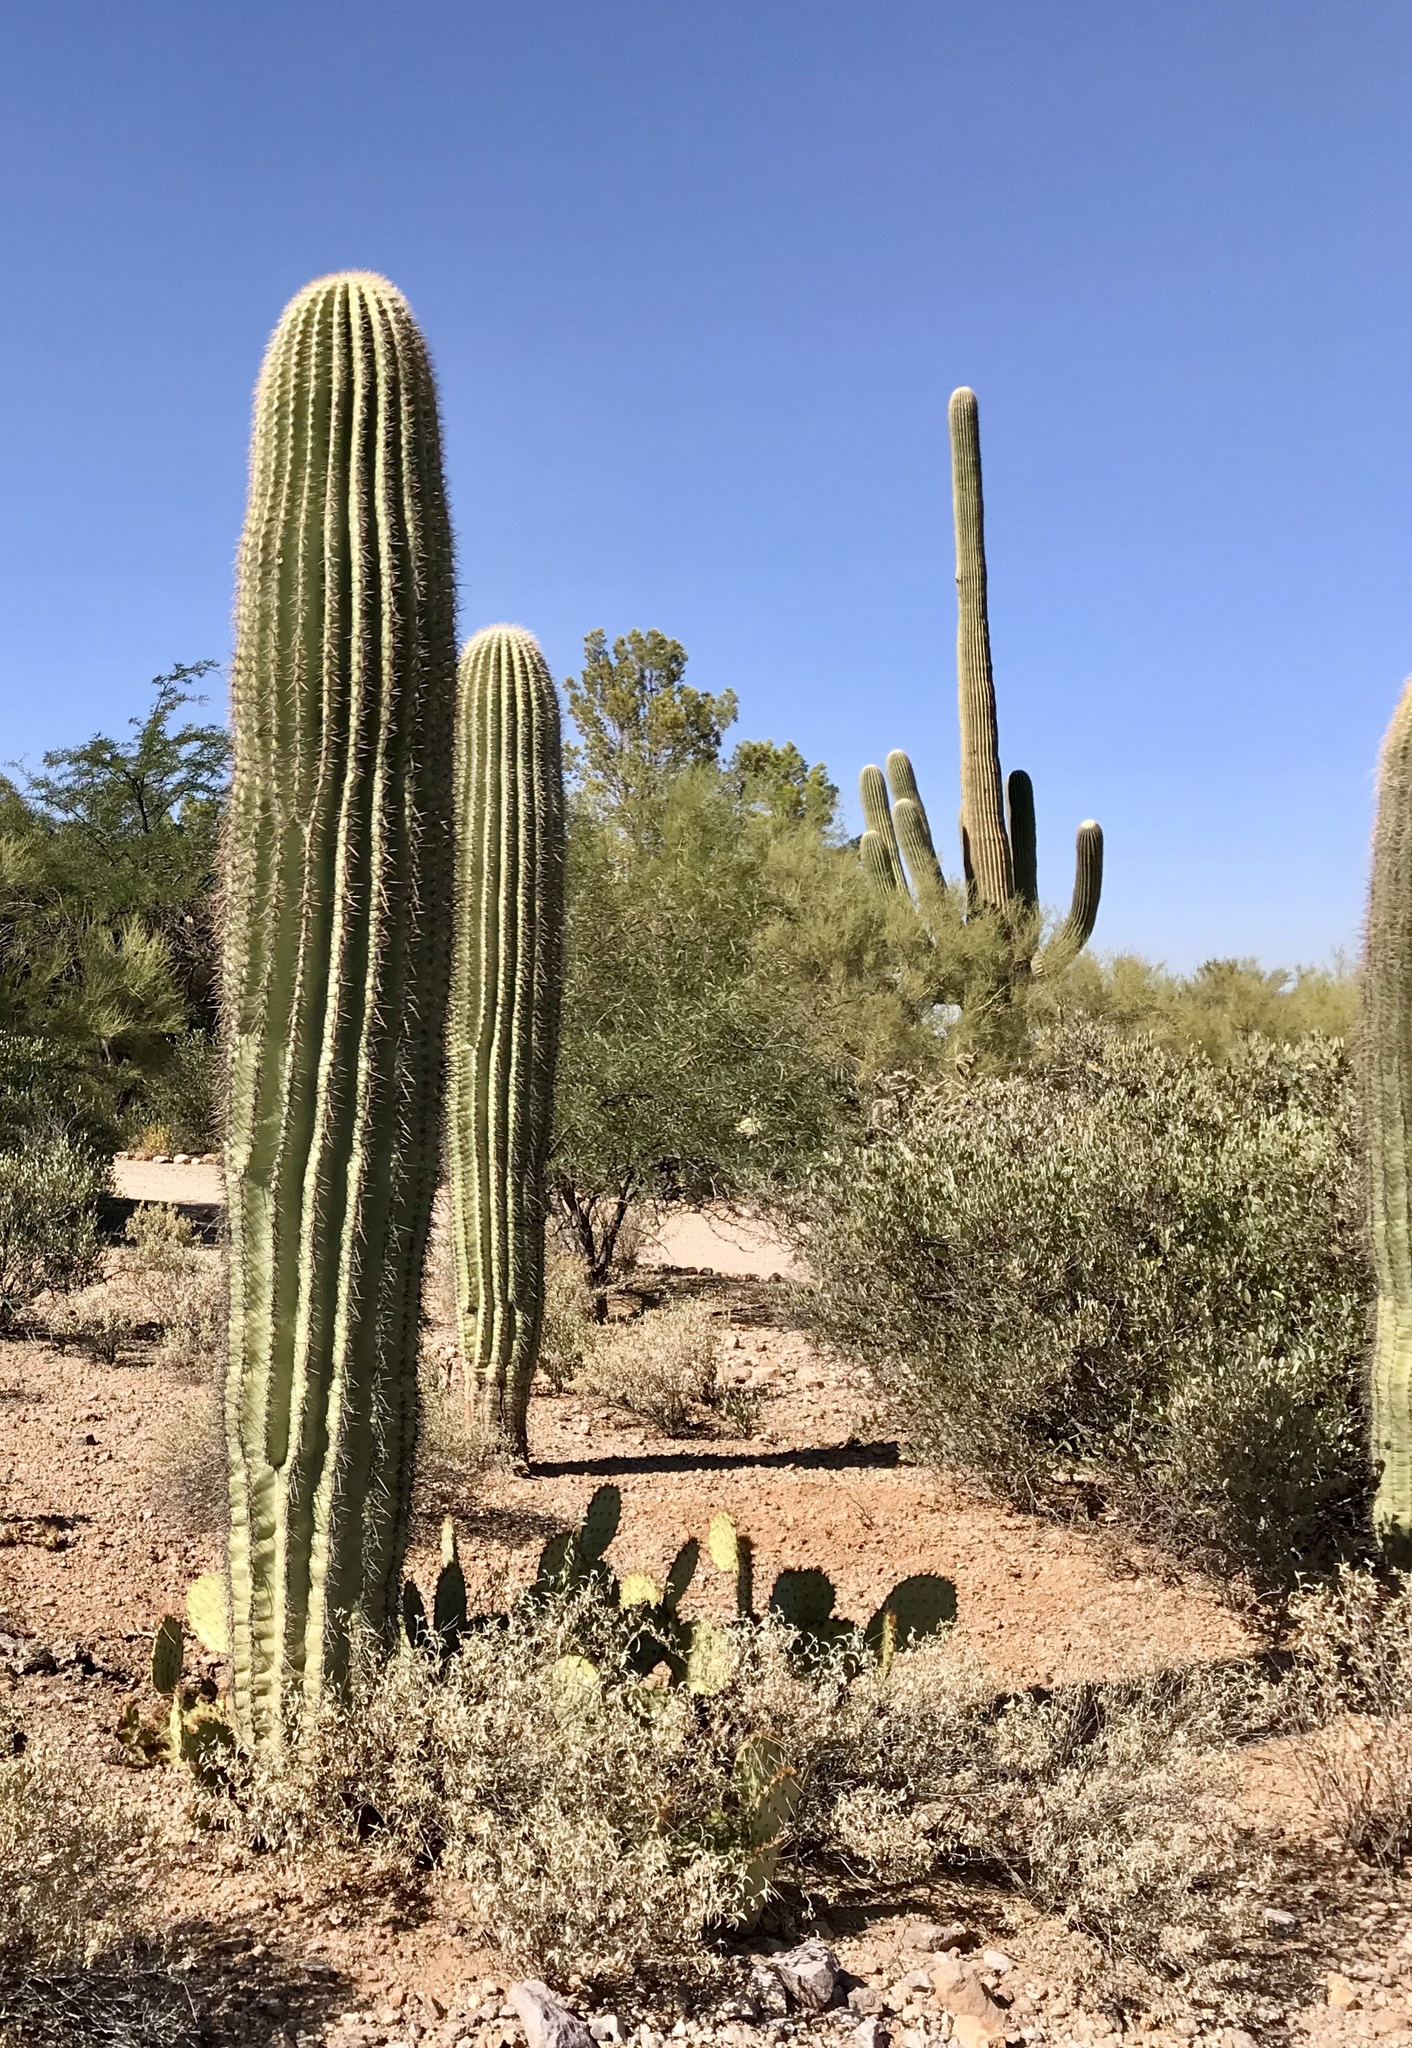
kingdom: Plantae
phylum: Tracheophyta
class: Magnoliopsida
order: Caryophyllales
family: Cactaceae
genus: Carnegiea
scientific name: Carnegiea gigantea
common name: Saguaro
